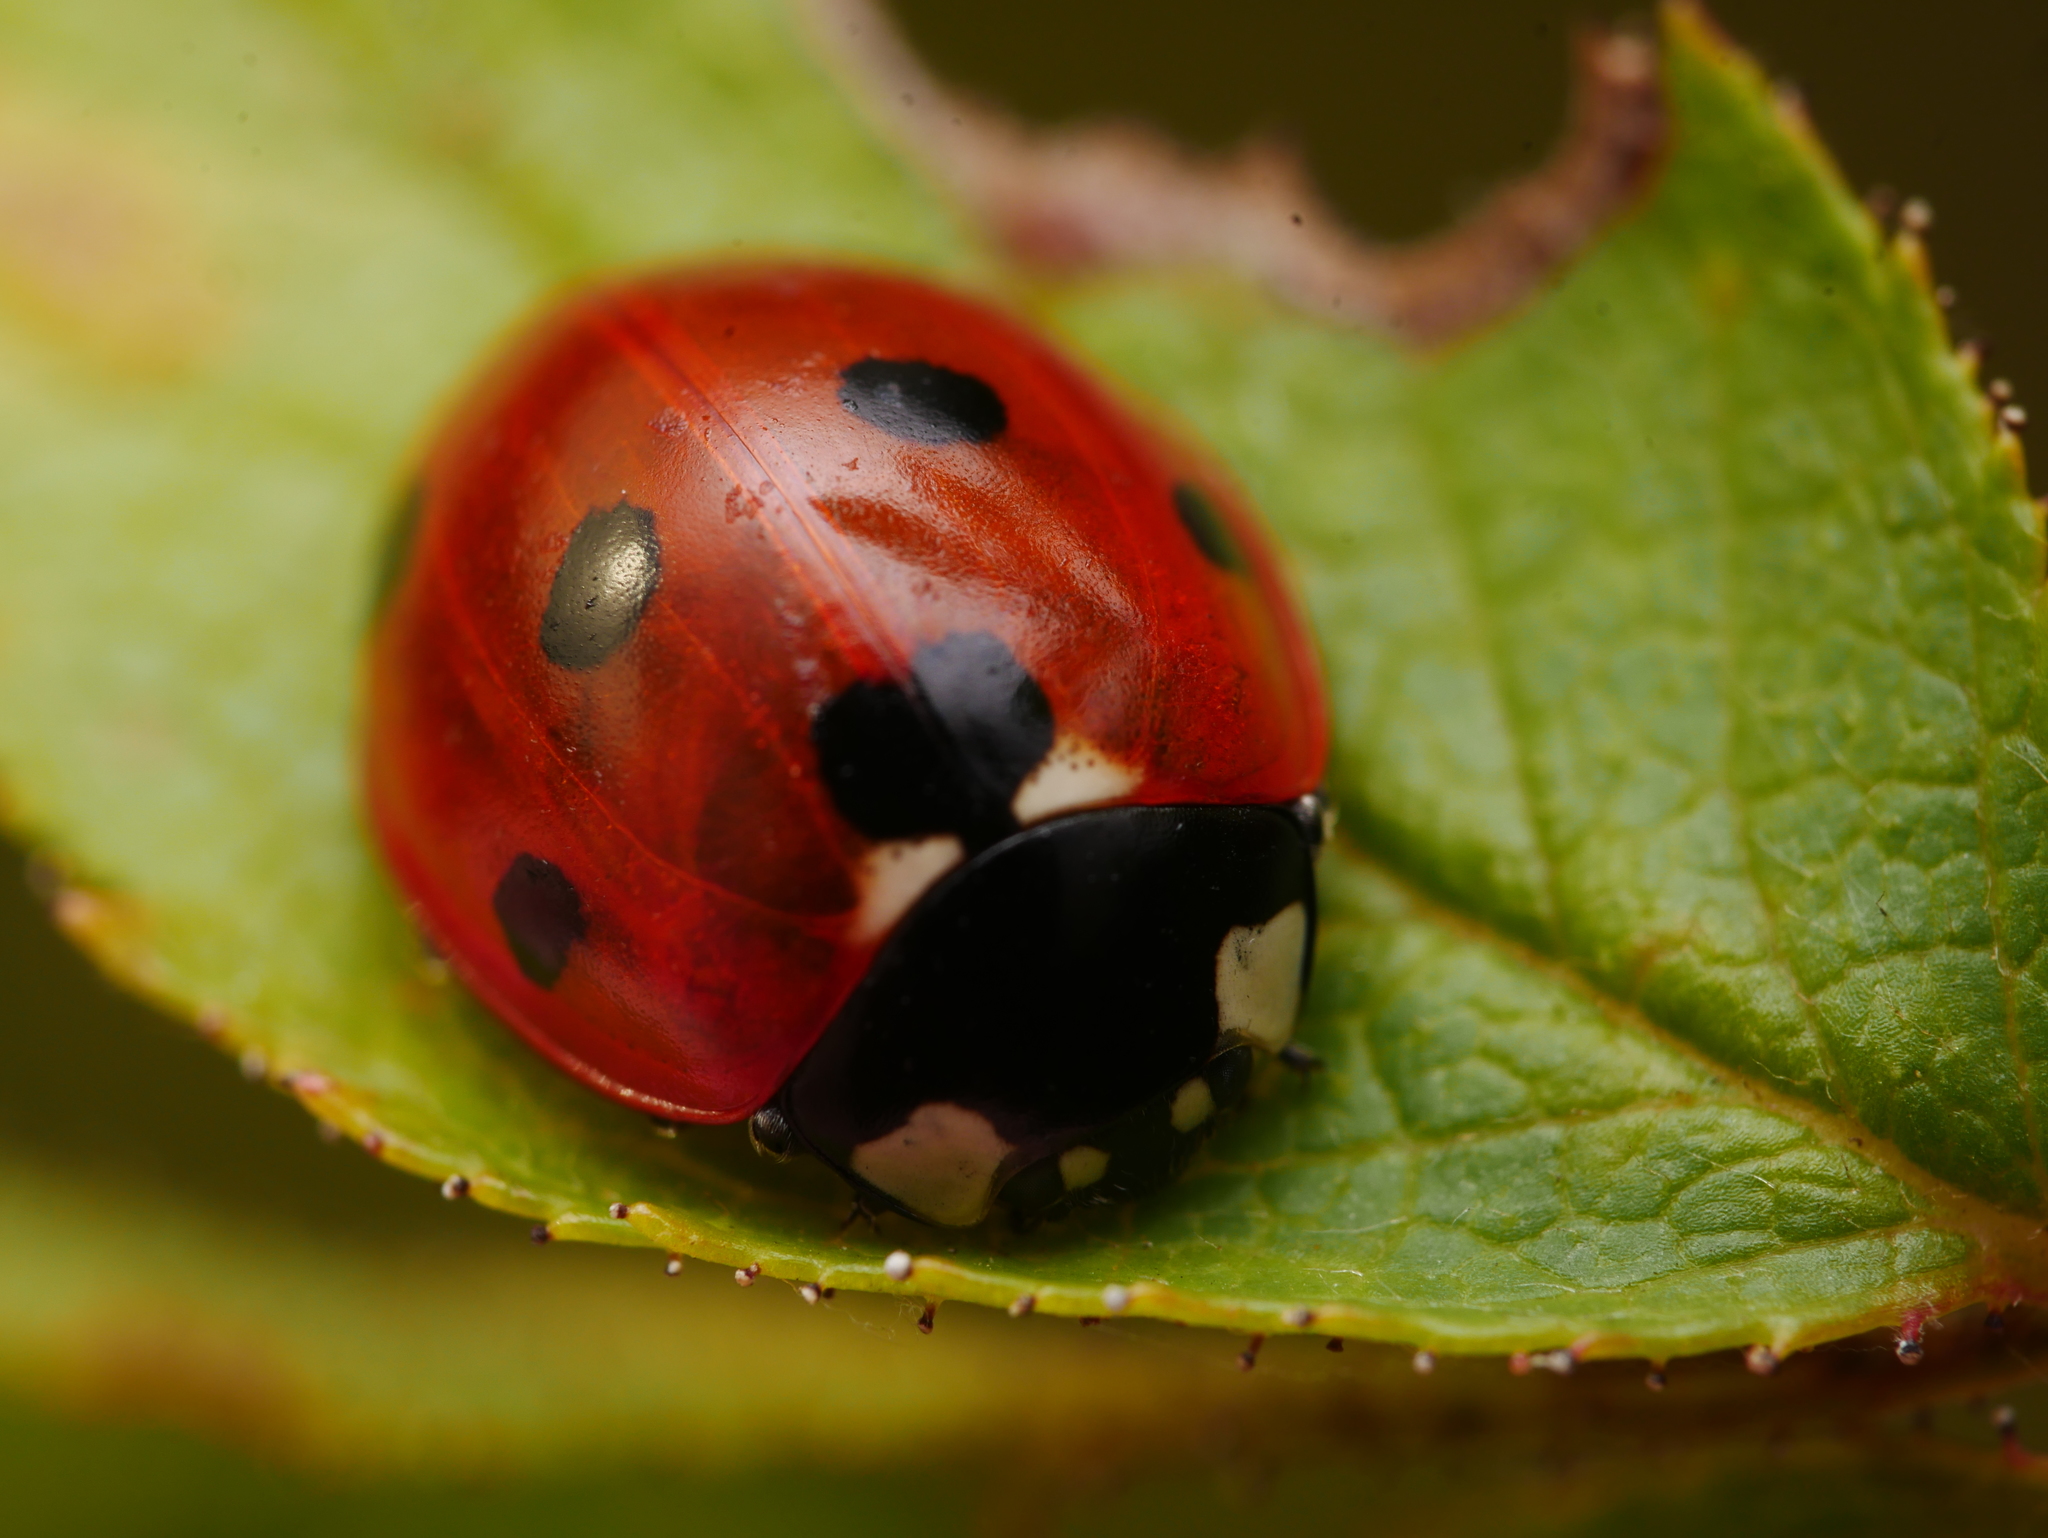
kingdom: Animalia
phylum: Arthropoda
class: Insecta
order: Coleoptera
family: Coccinellidae
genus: Coccinella
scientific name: Coccinella septempunctata
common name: Sevenspotted lady beetle
